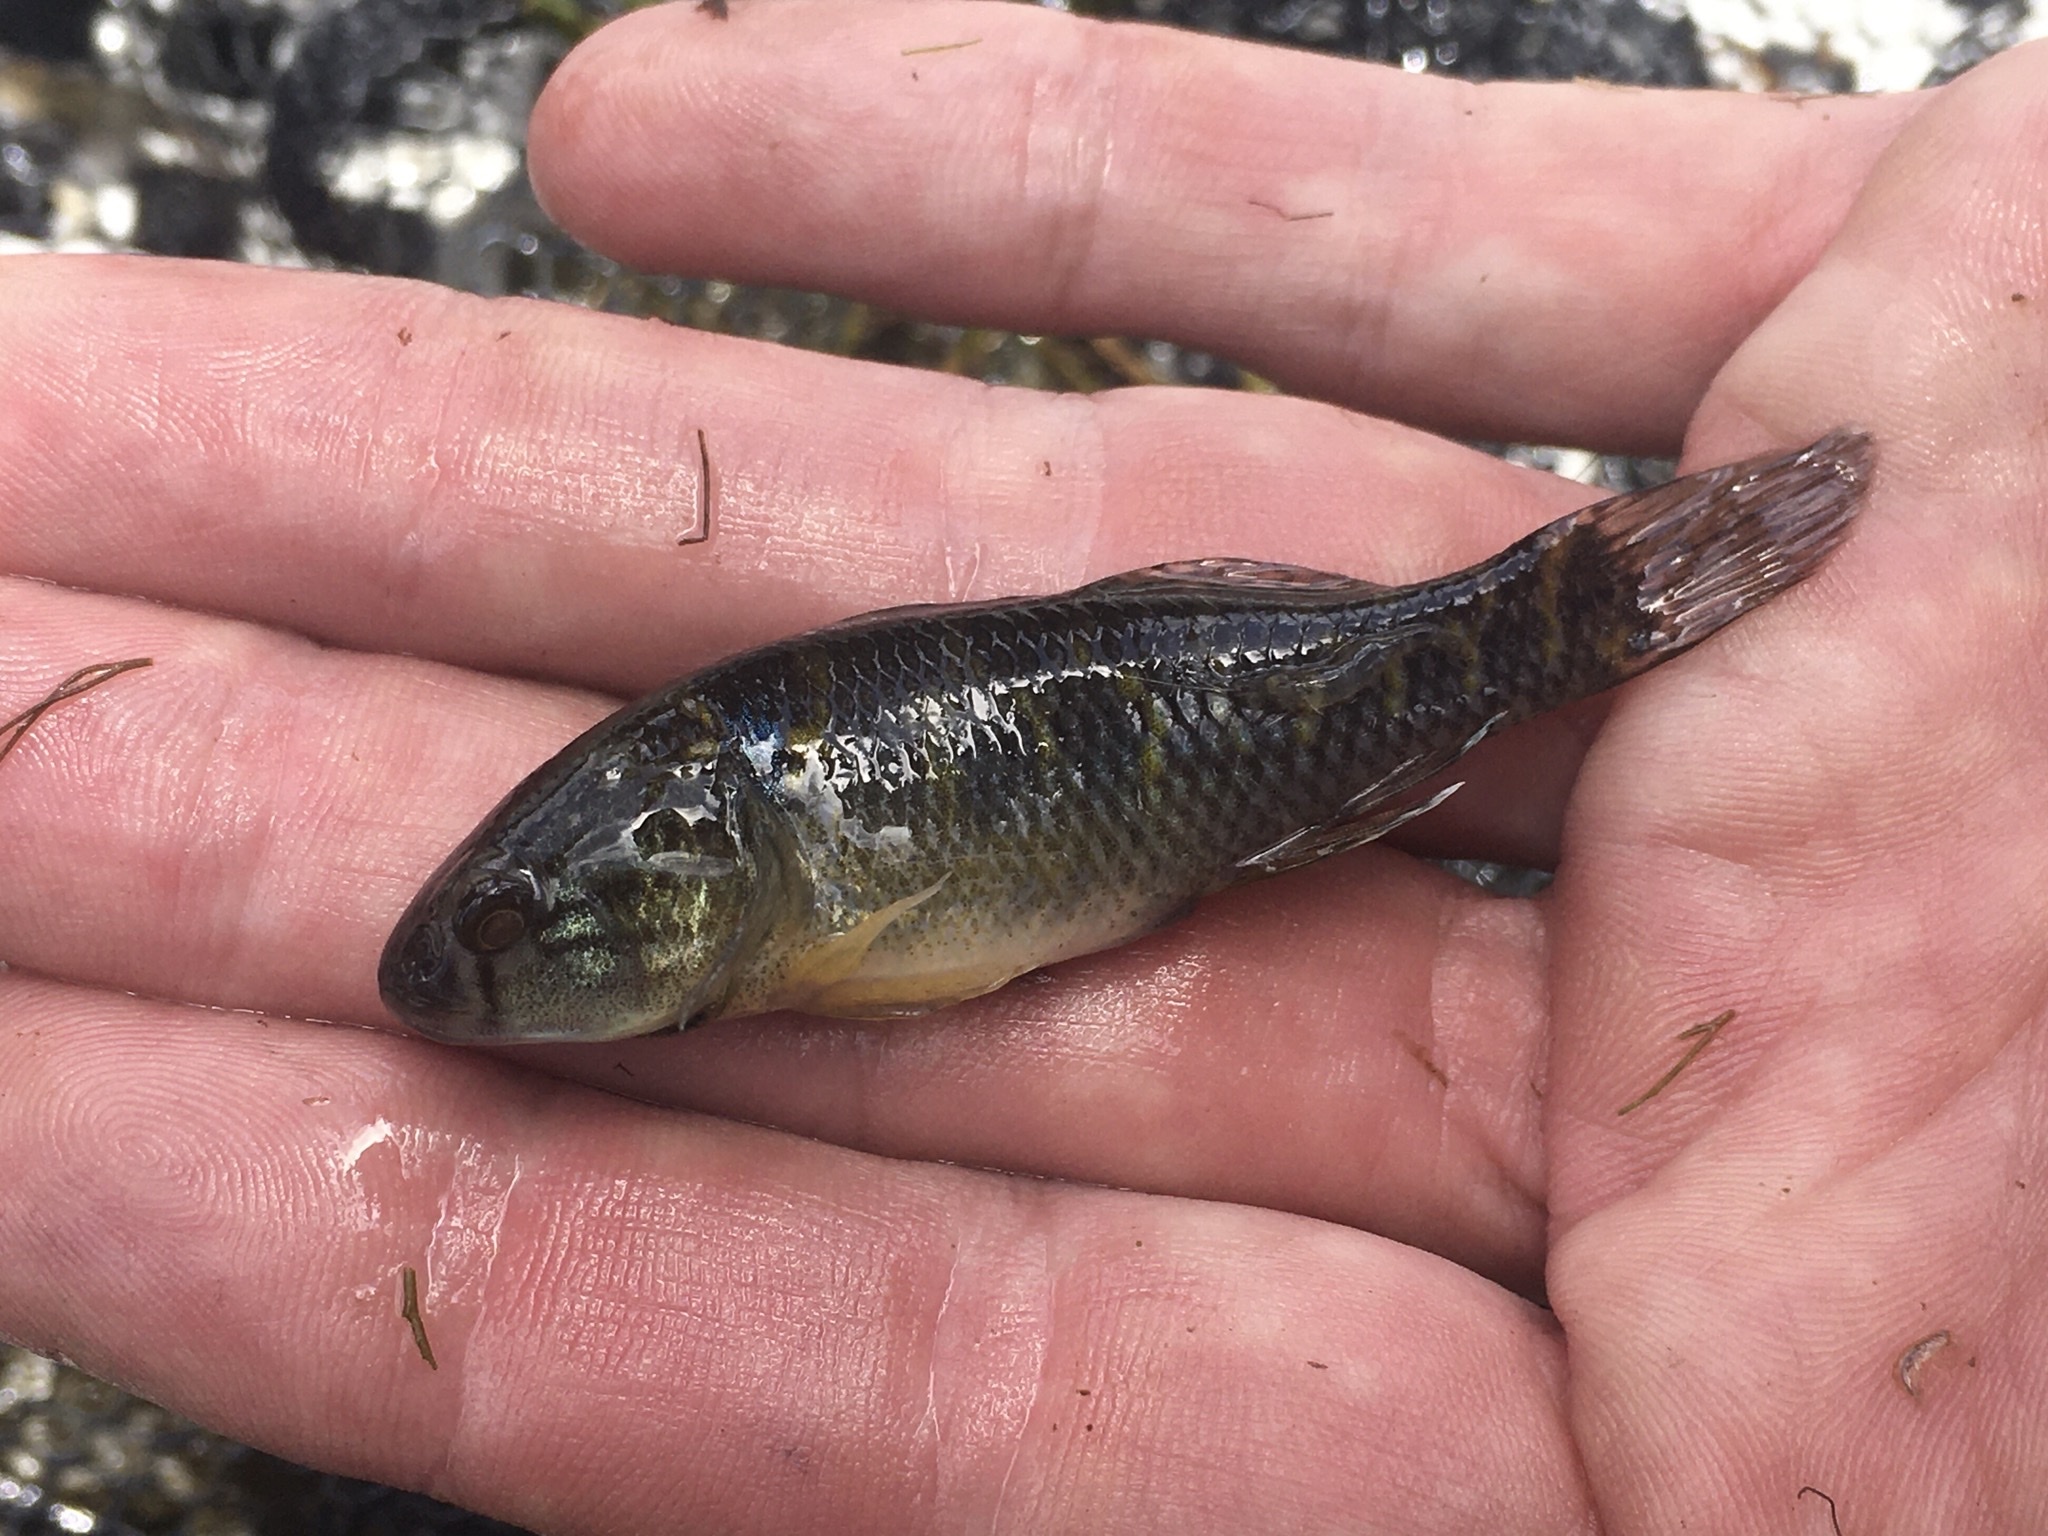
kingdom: Animalia
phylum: Chordata
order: Perciformes
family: Eleotridae
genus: Dormitator
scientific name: Dormitator maculatus
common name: Fat sleeper
